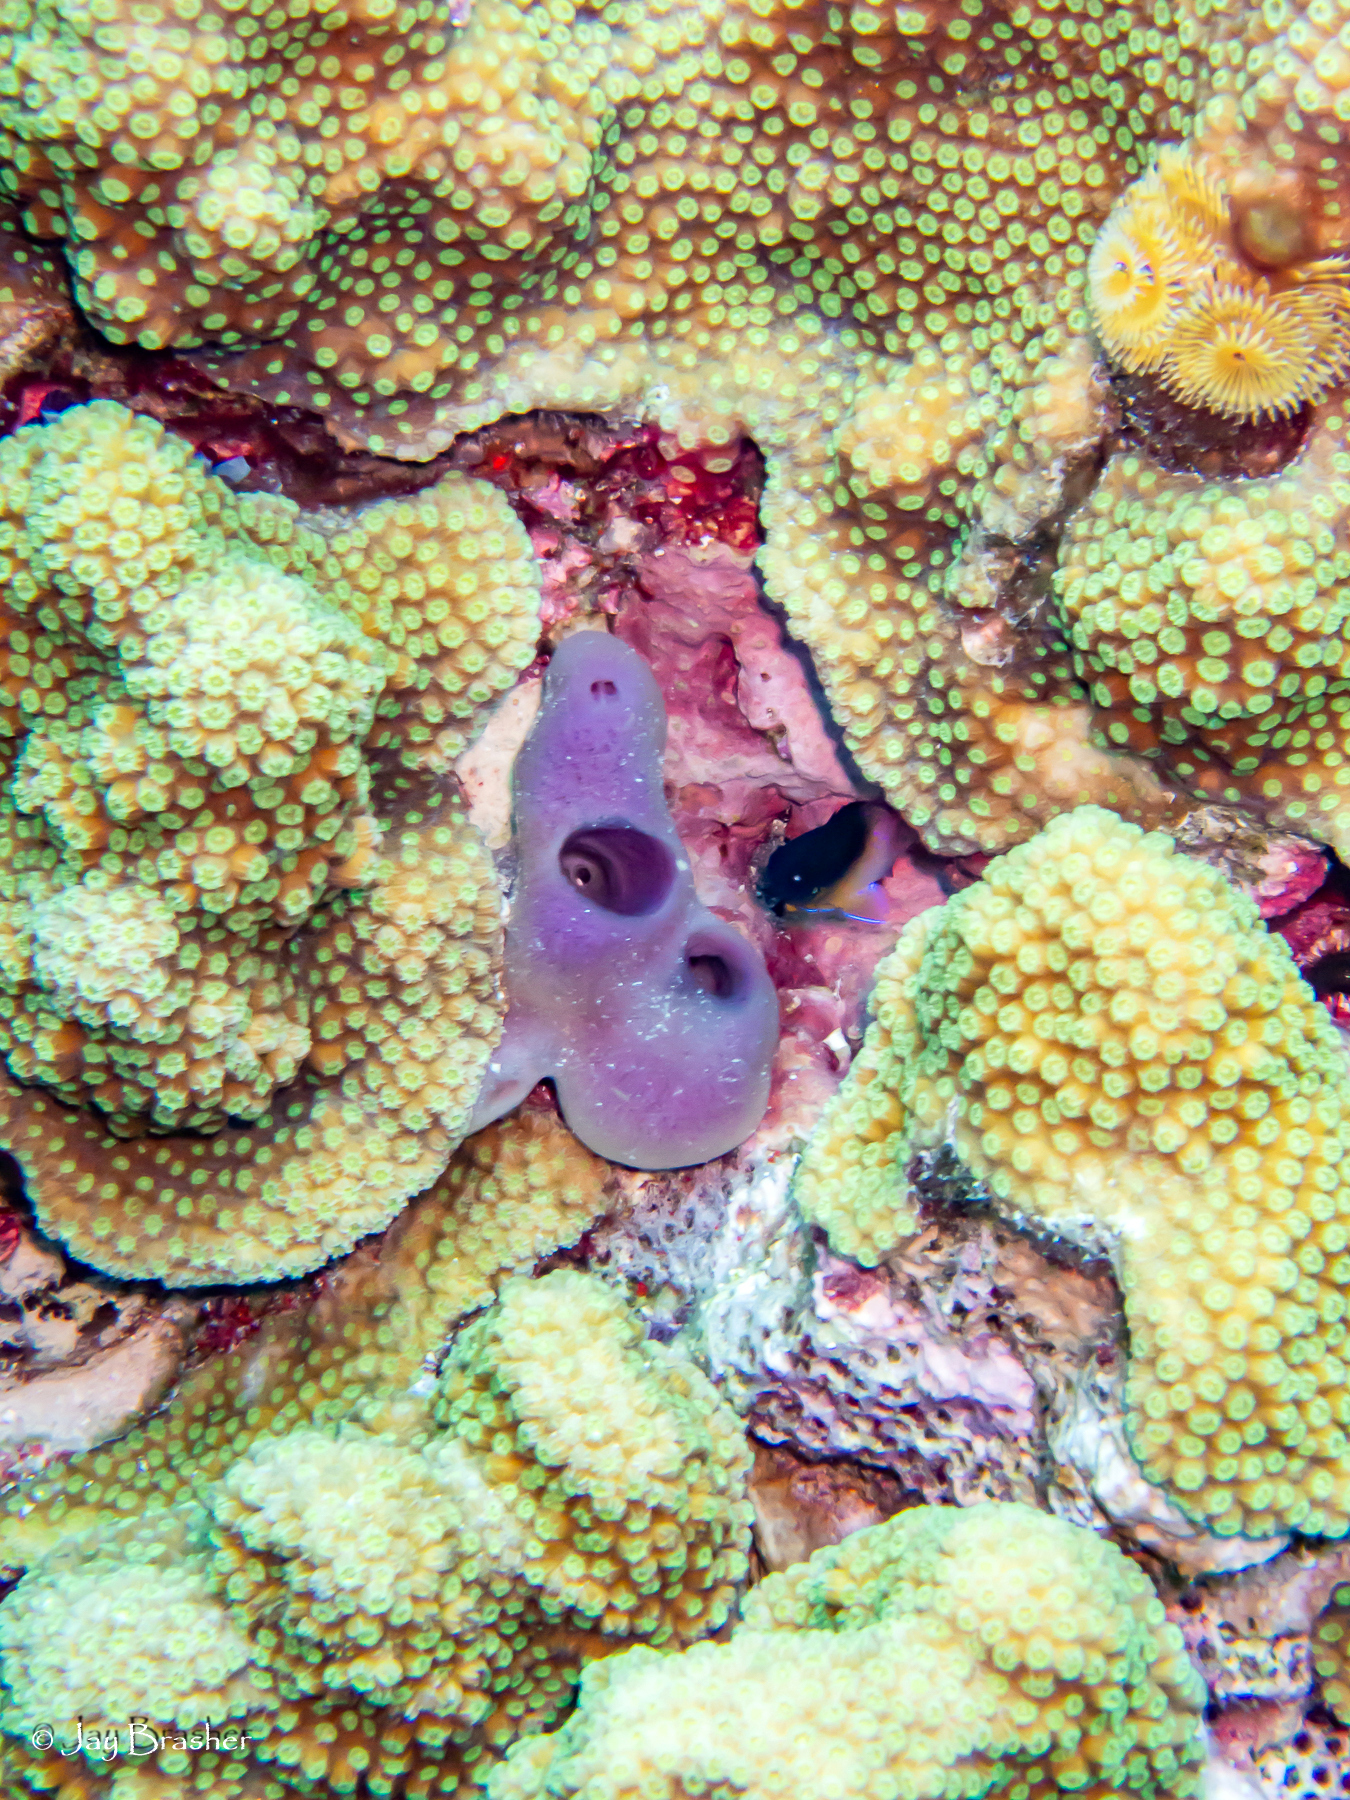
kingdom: Animalia
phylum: Annelida
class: Polychaeta
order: Sabellida
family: Serpulidae
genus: Spirobranchus
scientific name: Spirobranchus giganteus
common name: Christmas tree worm
